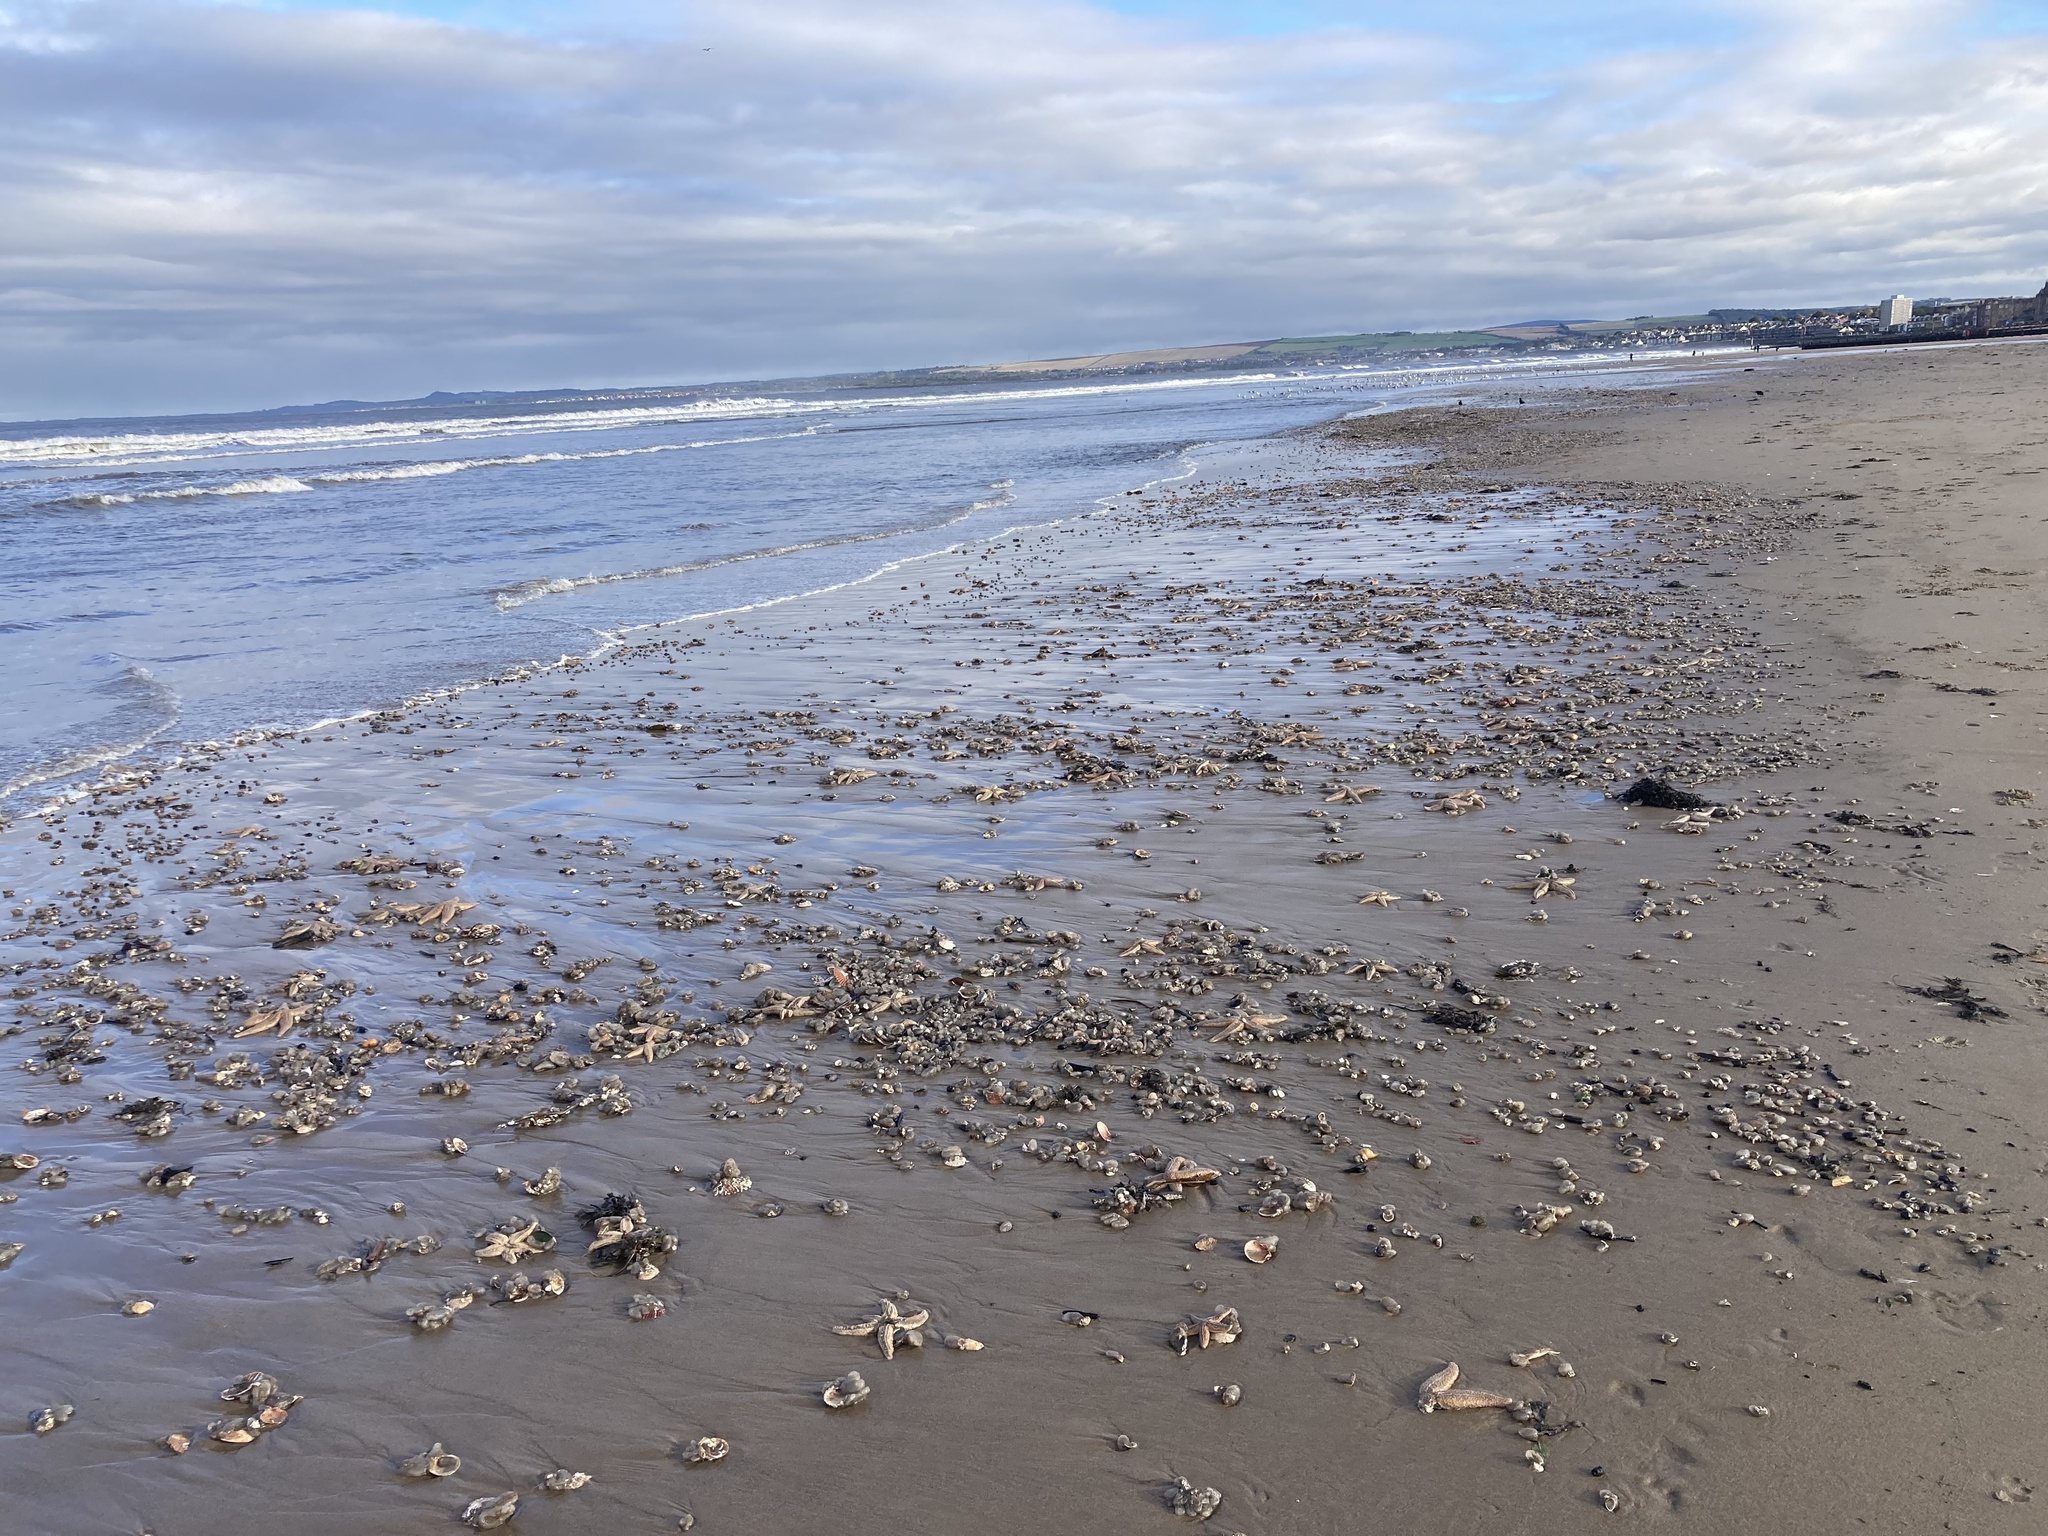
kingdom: Animalia
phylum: Echinodermata
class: Asteroidea
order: Forcipulatida
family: Asteriidae
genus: Asterias
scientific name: Asterias rubens
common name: Common starfish
